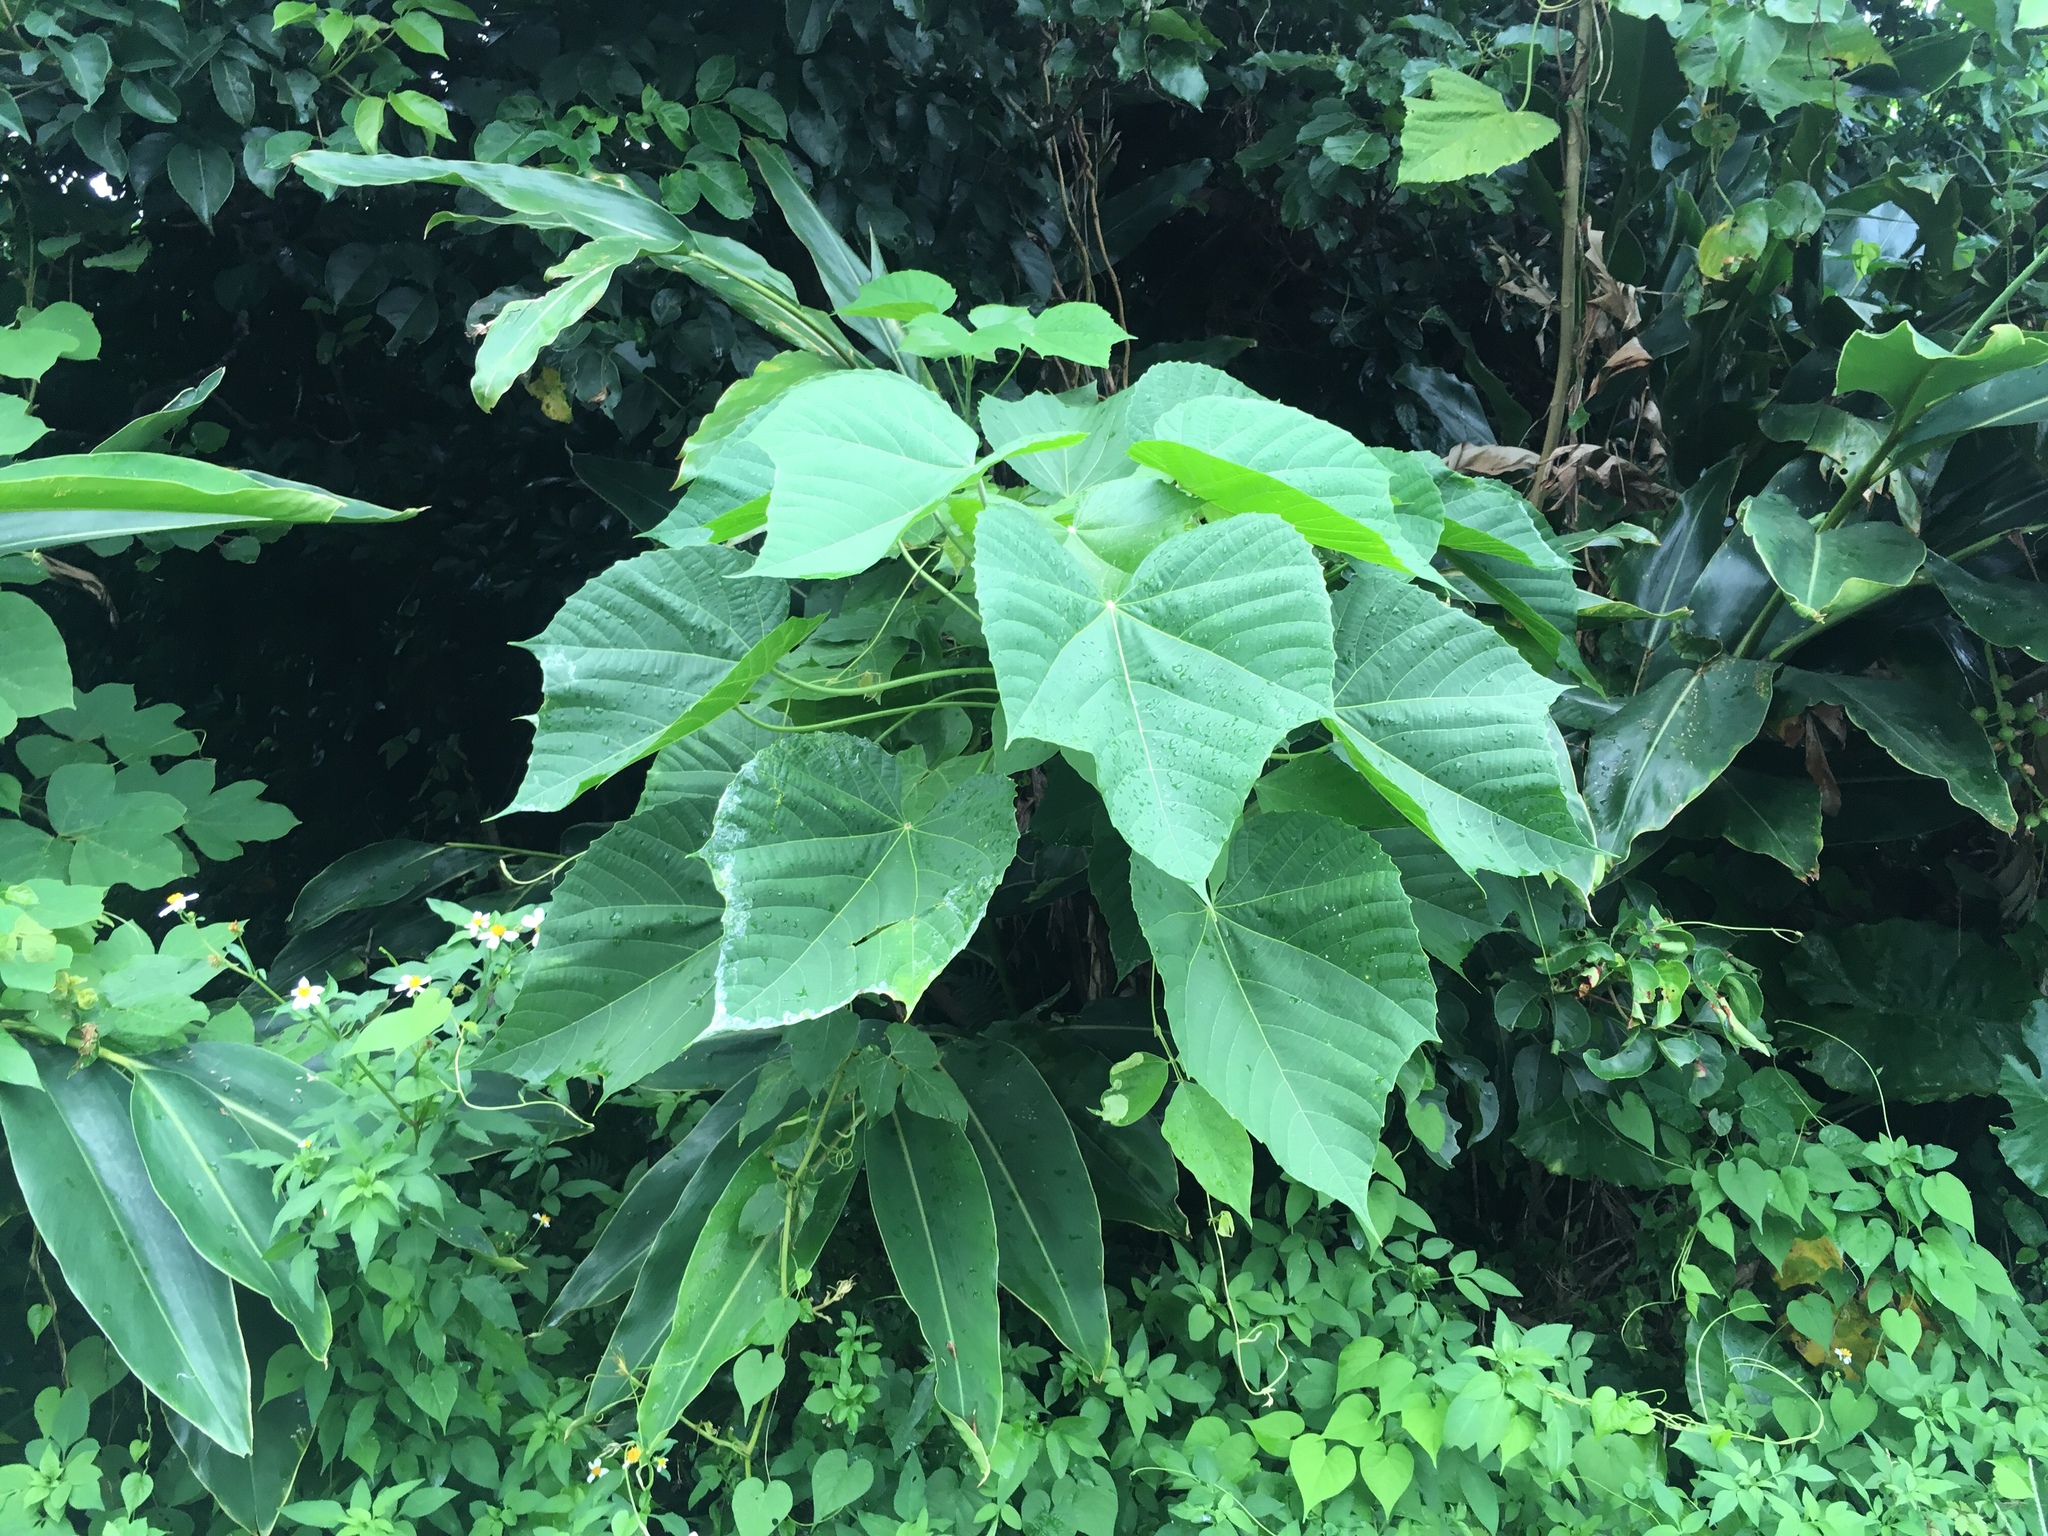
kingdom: Plantae
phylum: Tracheophyta
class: Magnoliopsida
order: Malpighiales
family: Euphorbiaceae
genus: Melanolepis
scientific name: Melanolepis multiglandulosa
